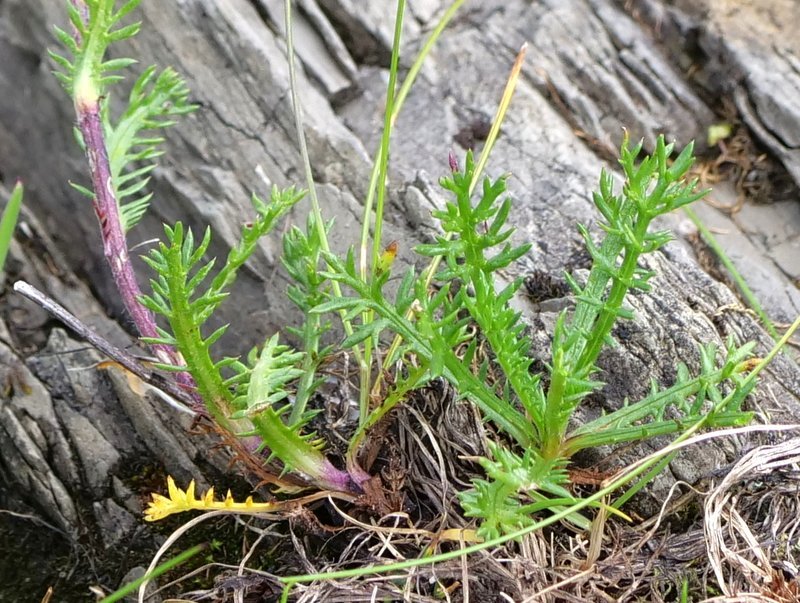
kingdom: Plantae
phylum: Tracheophyta
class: Magnoliopsida
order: Asterales
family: Asteraceae
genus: Achillea
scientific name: Achillea atrata
